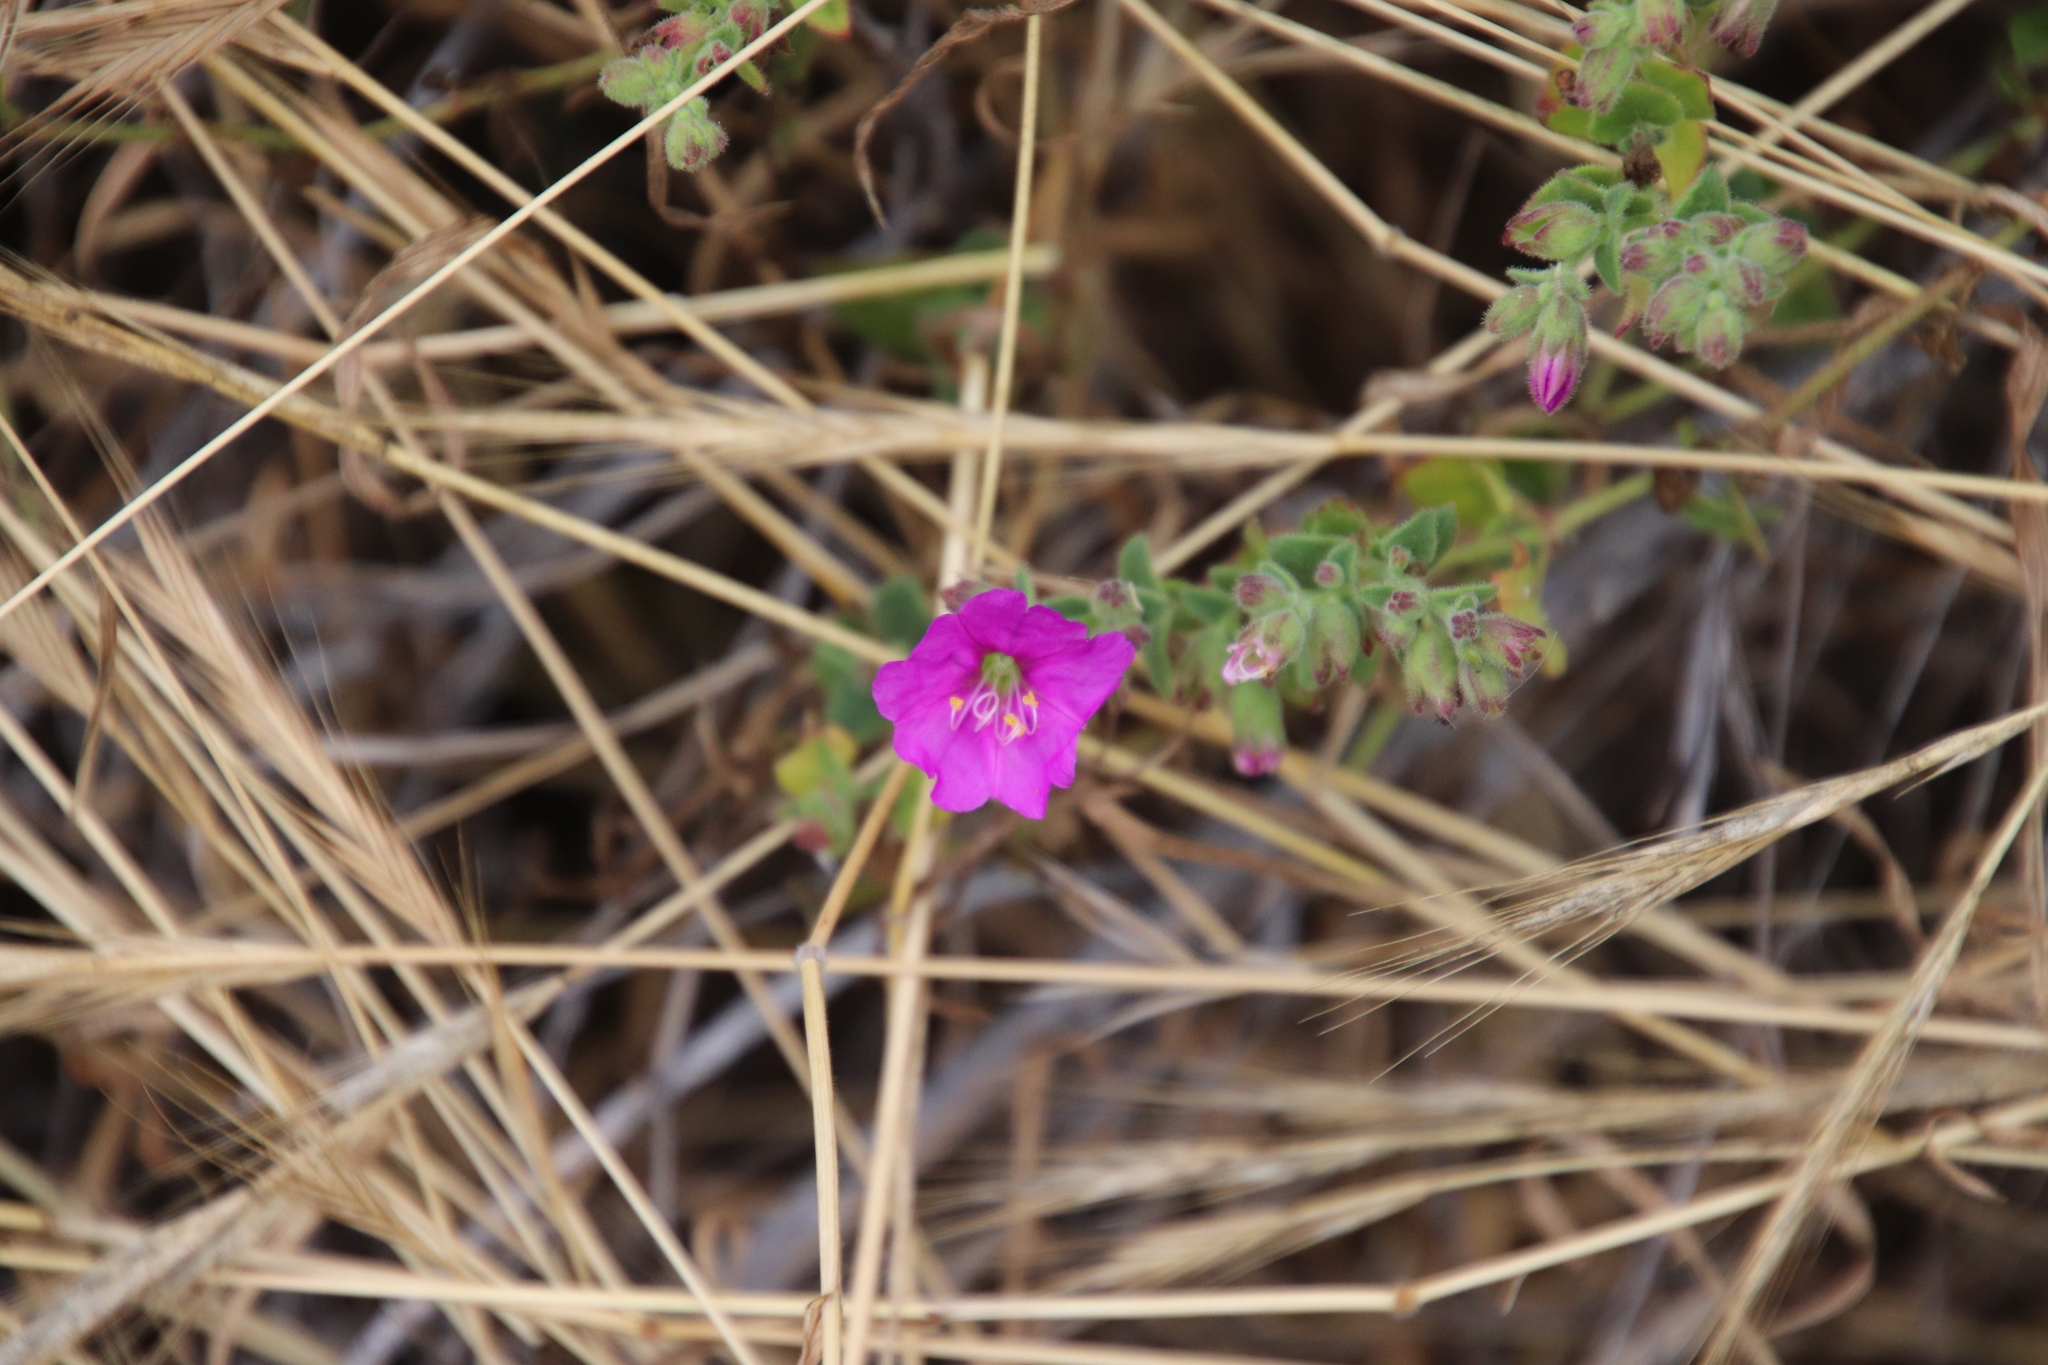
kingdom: Plantae
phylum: Tracheophyta
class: Magnoliopsida
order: Caryophyllales
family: Nyctaginaceae
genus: Mirabilis
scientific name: Mirabilis laevis
